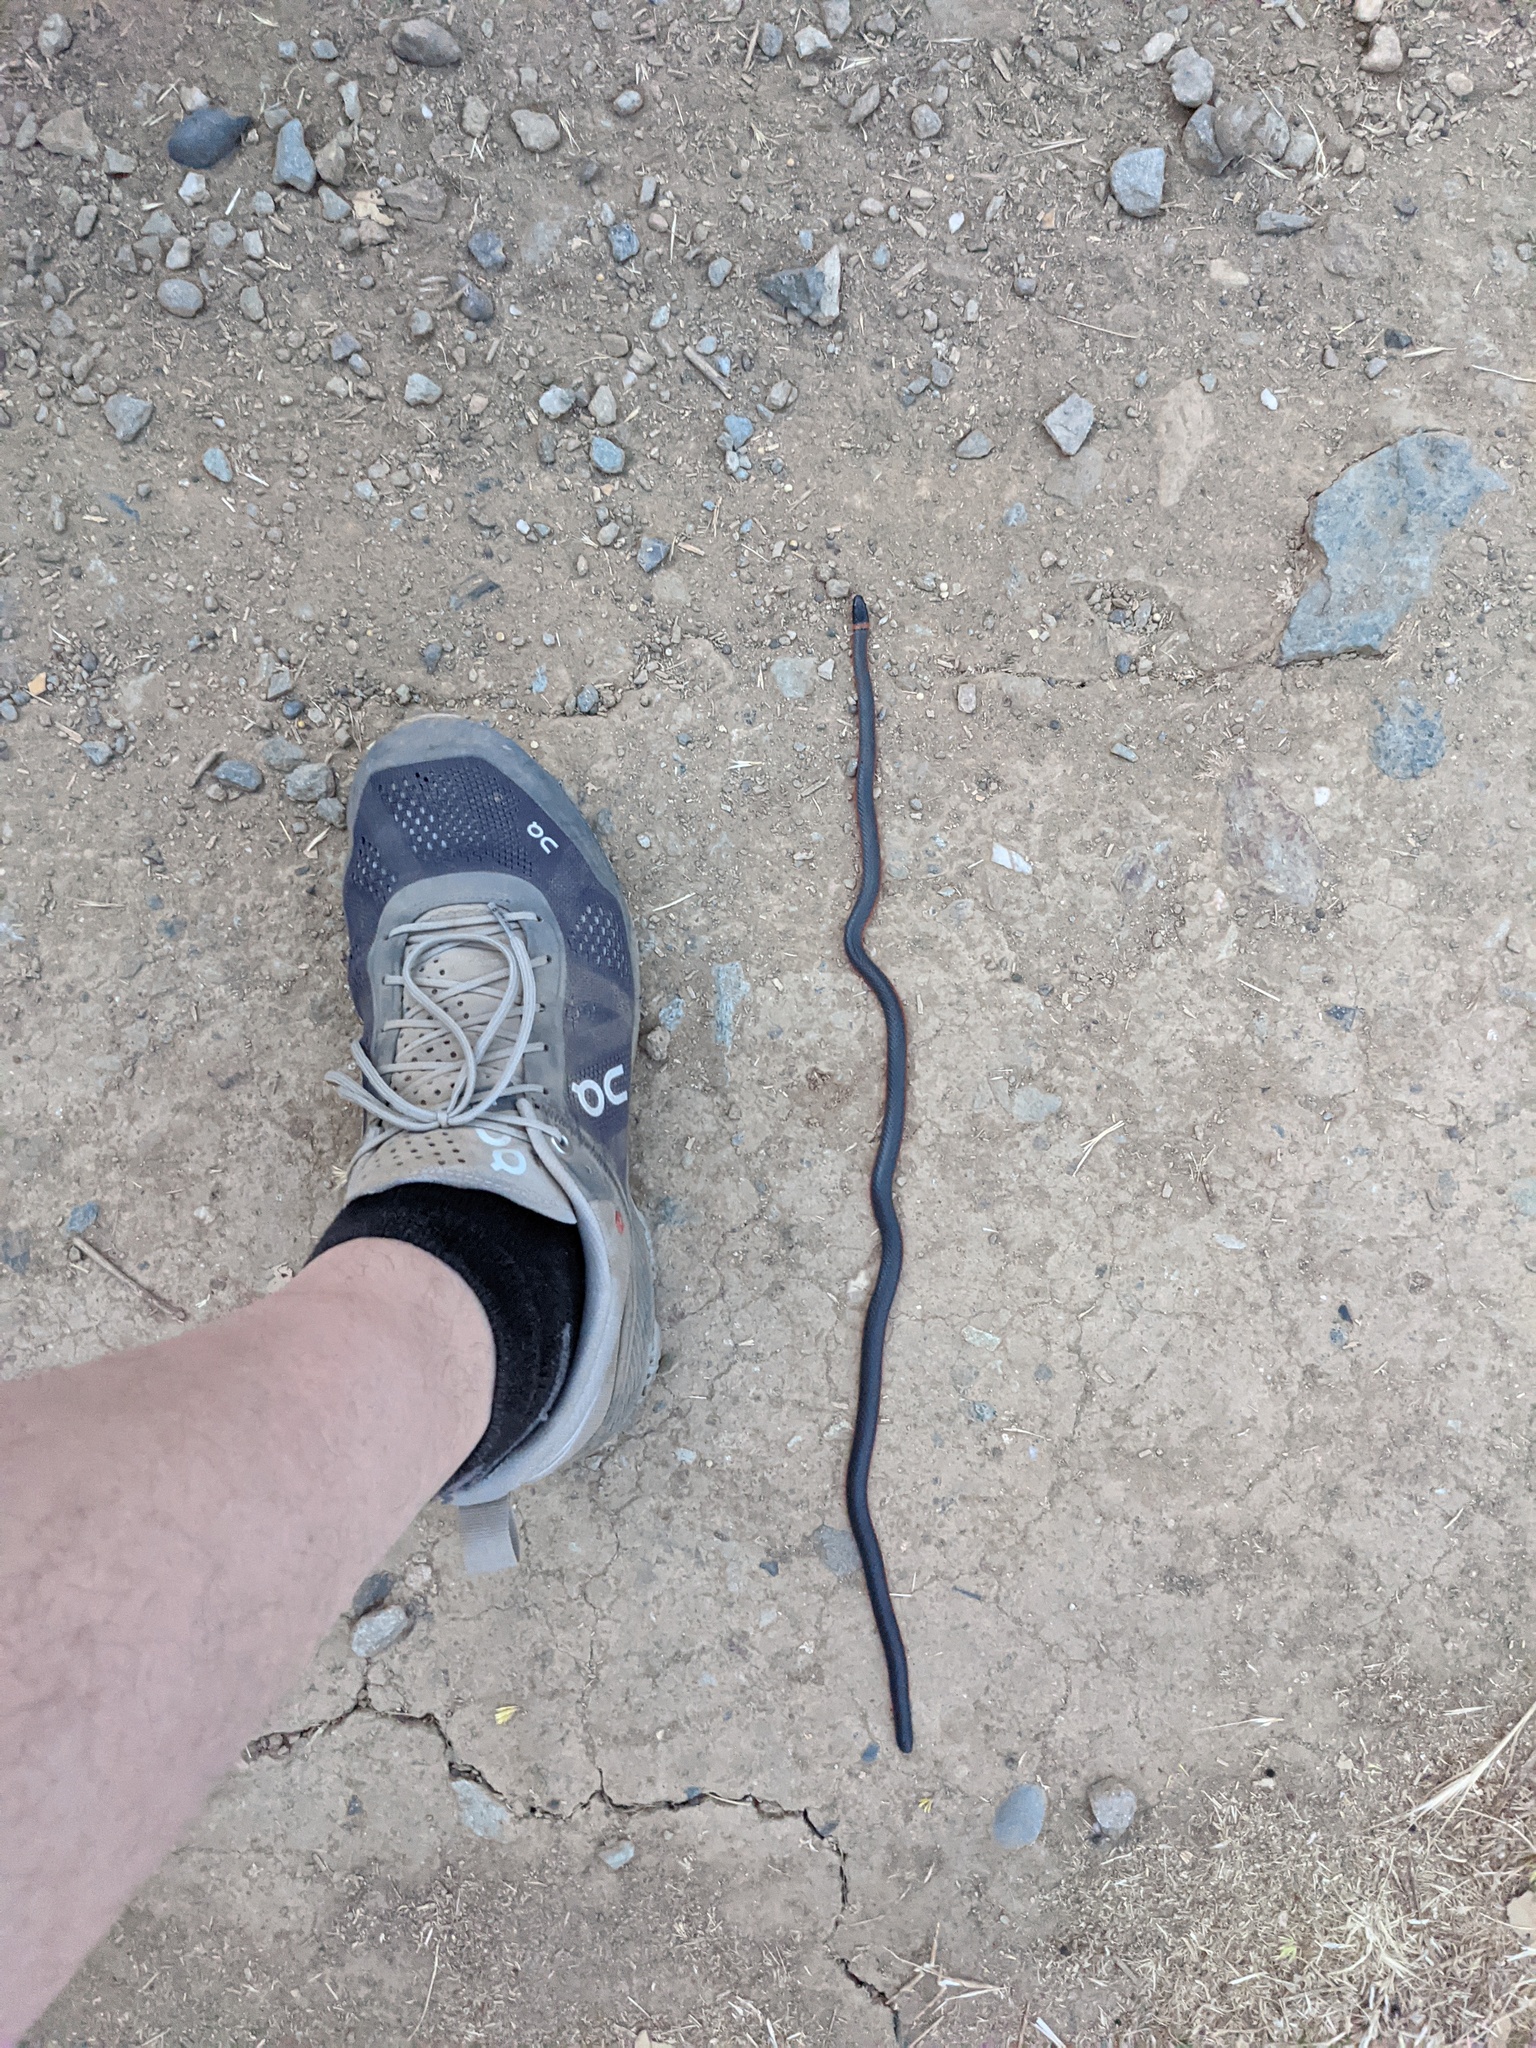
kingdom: Animalia
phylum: Chordata
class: Squamata
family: Colubridae
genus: Diadophis
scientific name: Diadophis punctatus
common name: Ringneck snake
